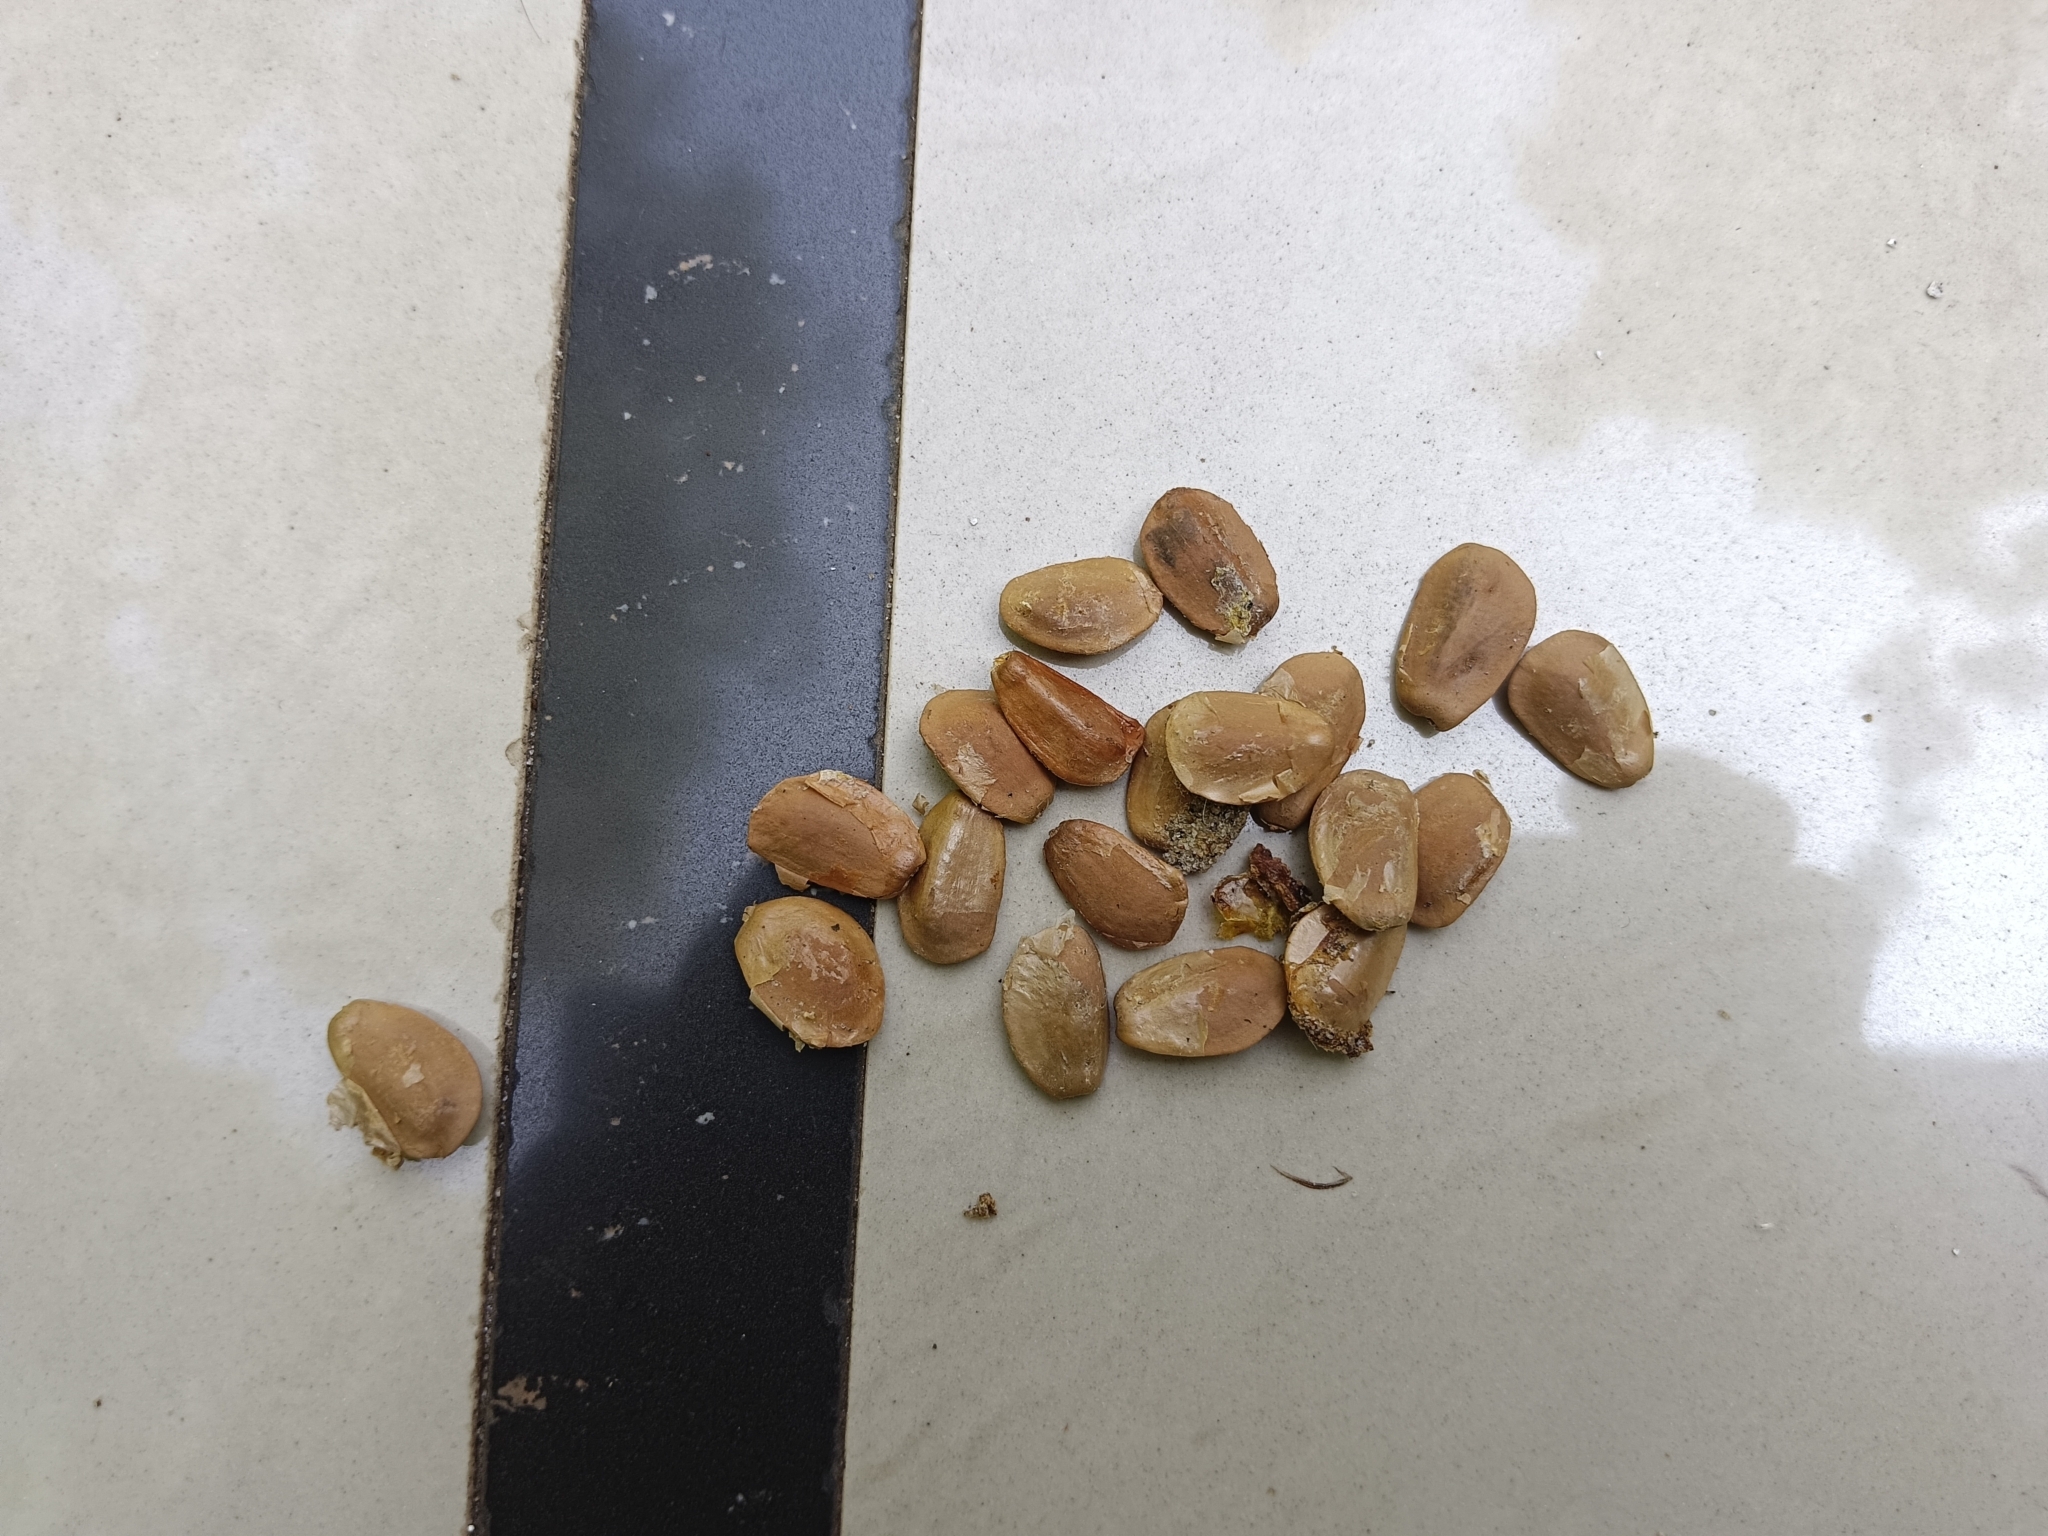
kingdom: Plantae
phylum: Tracheophyta
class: Magnoliopsida
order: Magnoliales
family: Annonaceae
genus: Annona
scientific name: Annona glabra
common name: Monkey apple
